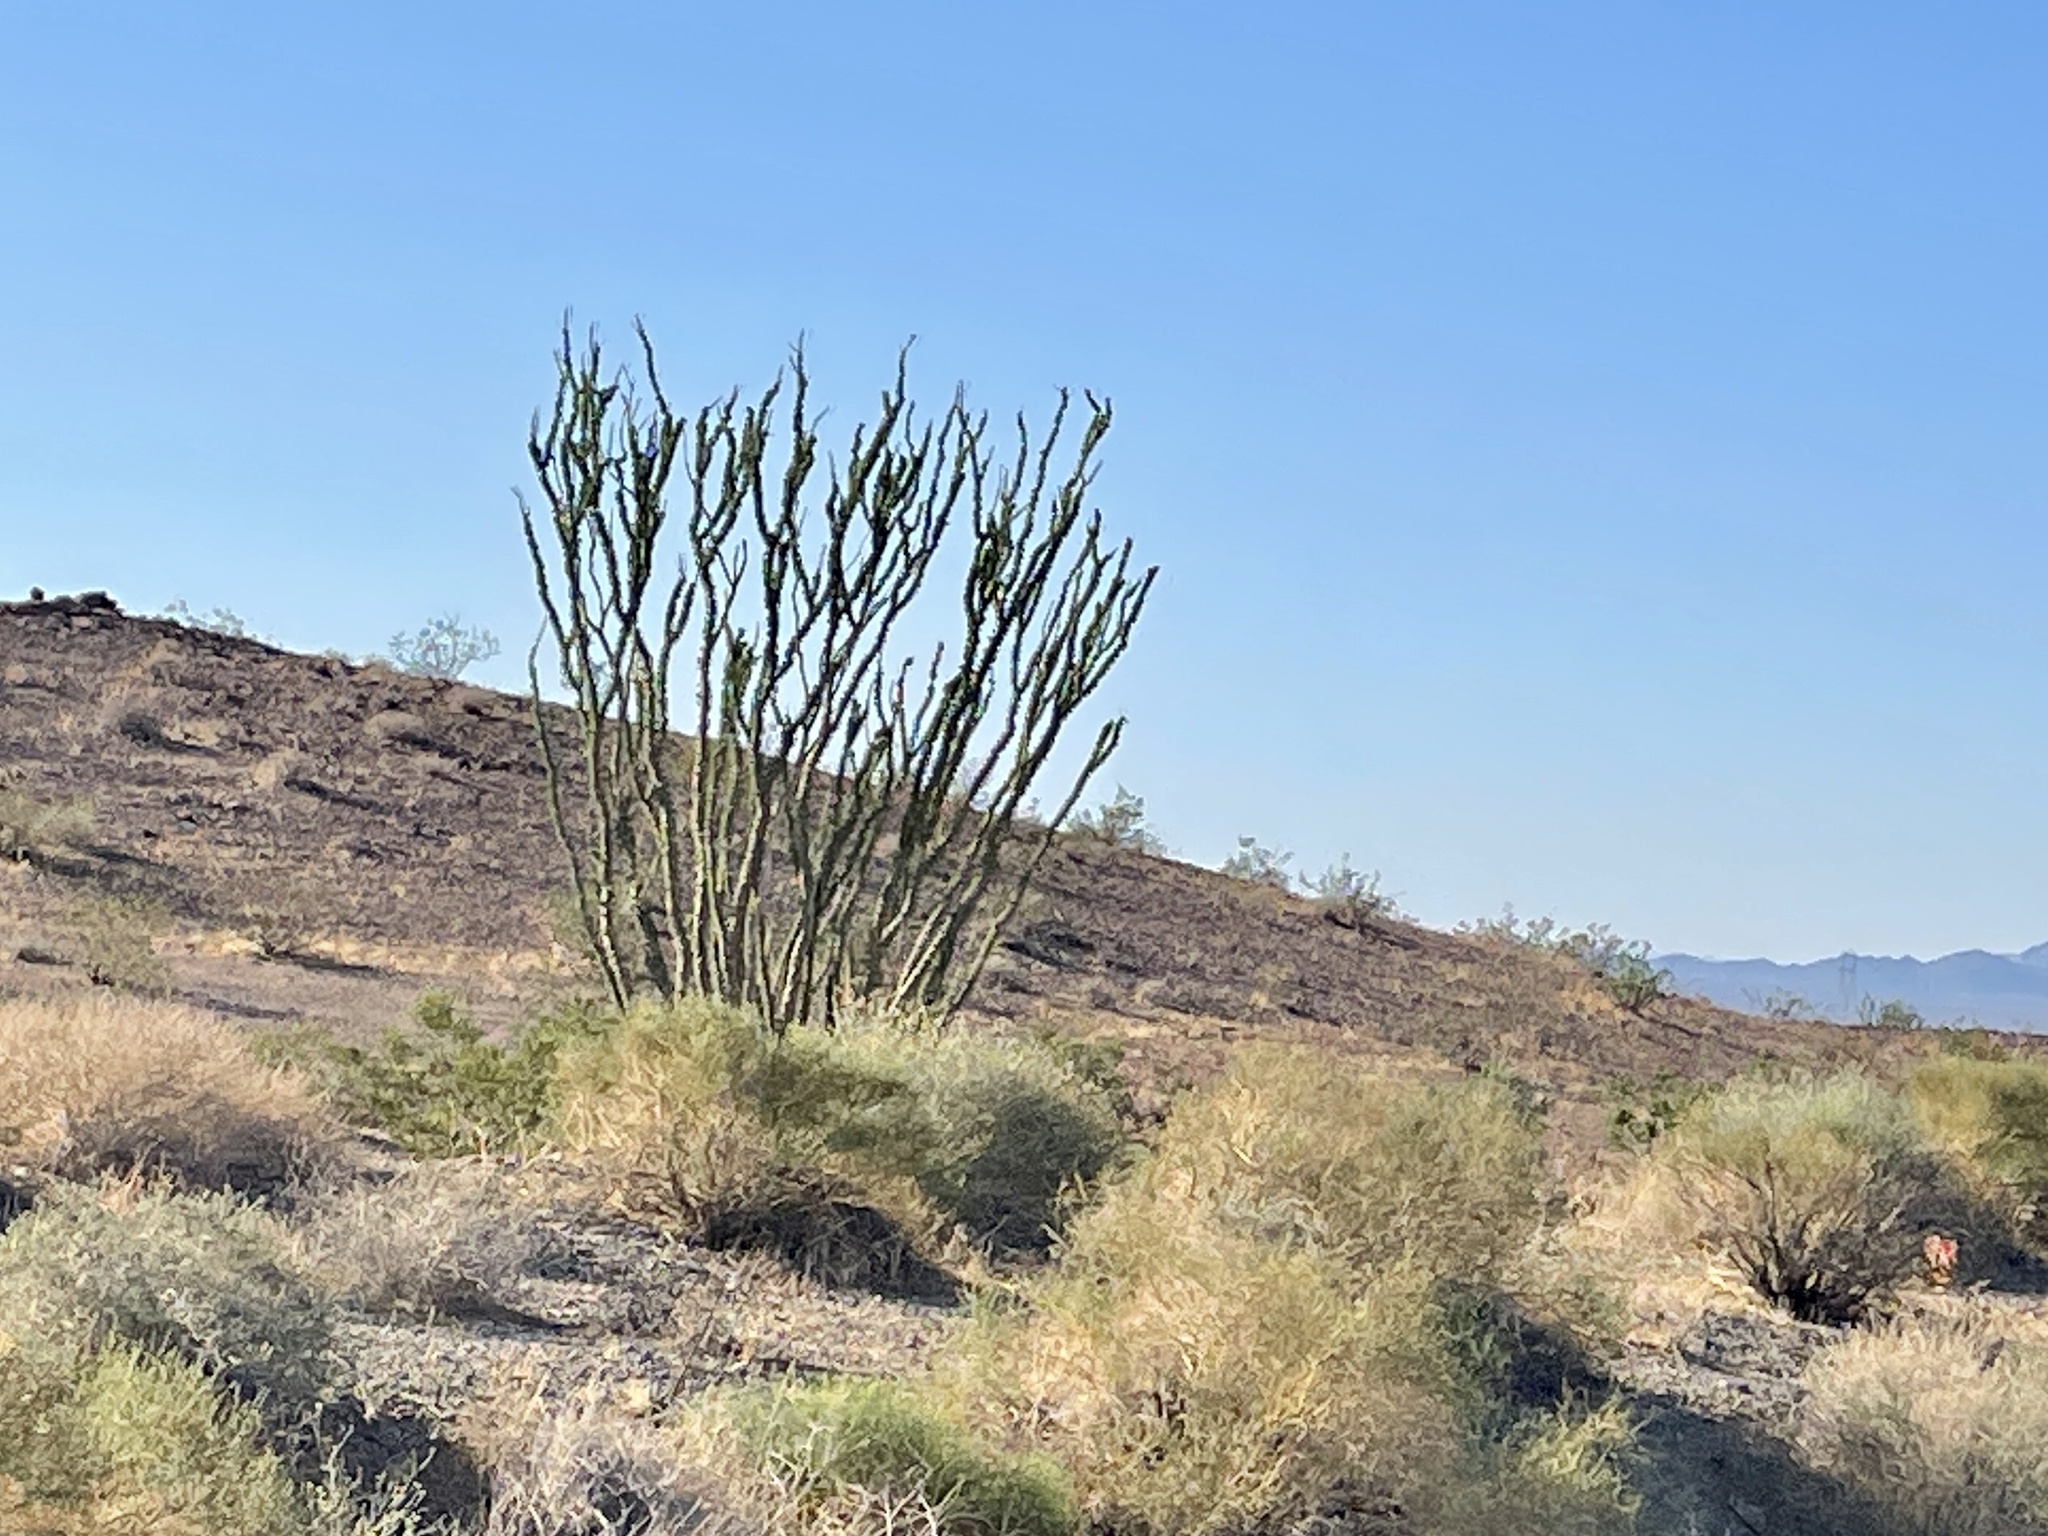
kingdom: Plantae
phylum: Tracheophyta
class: Magnoliopsida
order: Ericales
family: Fouquieriaceae
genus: Fouquieria
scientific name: Fouquieria splendens
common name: Vine-cactus
